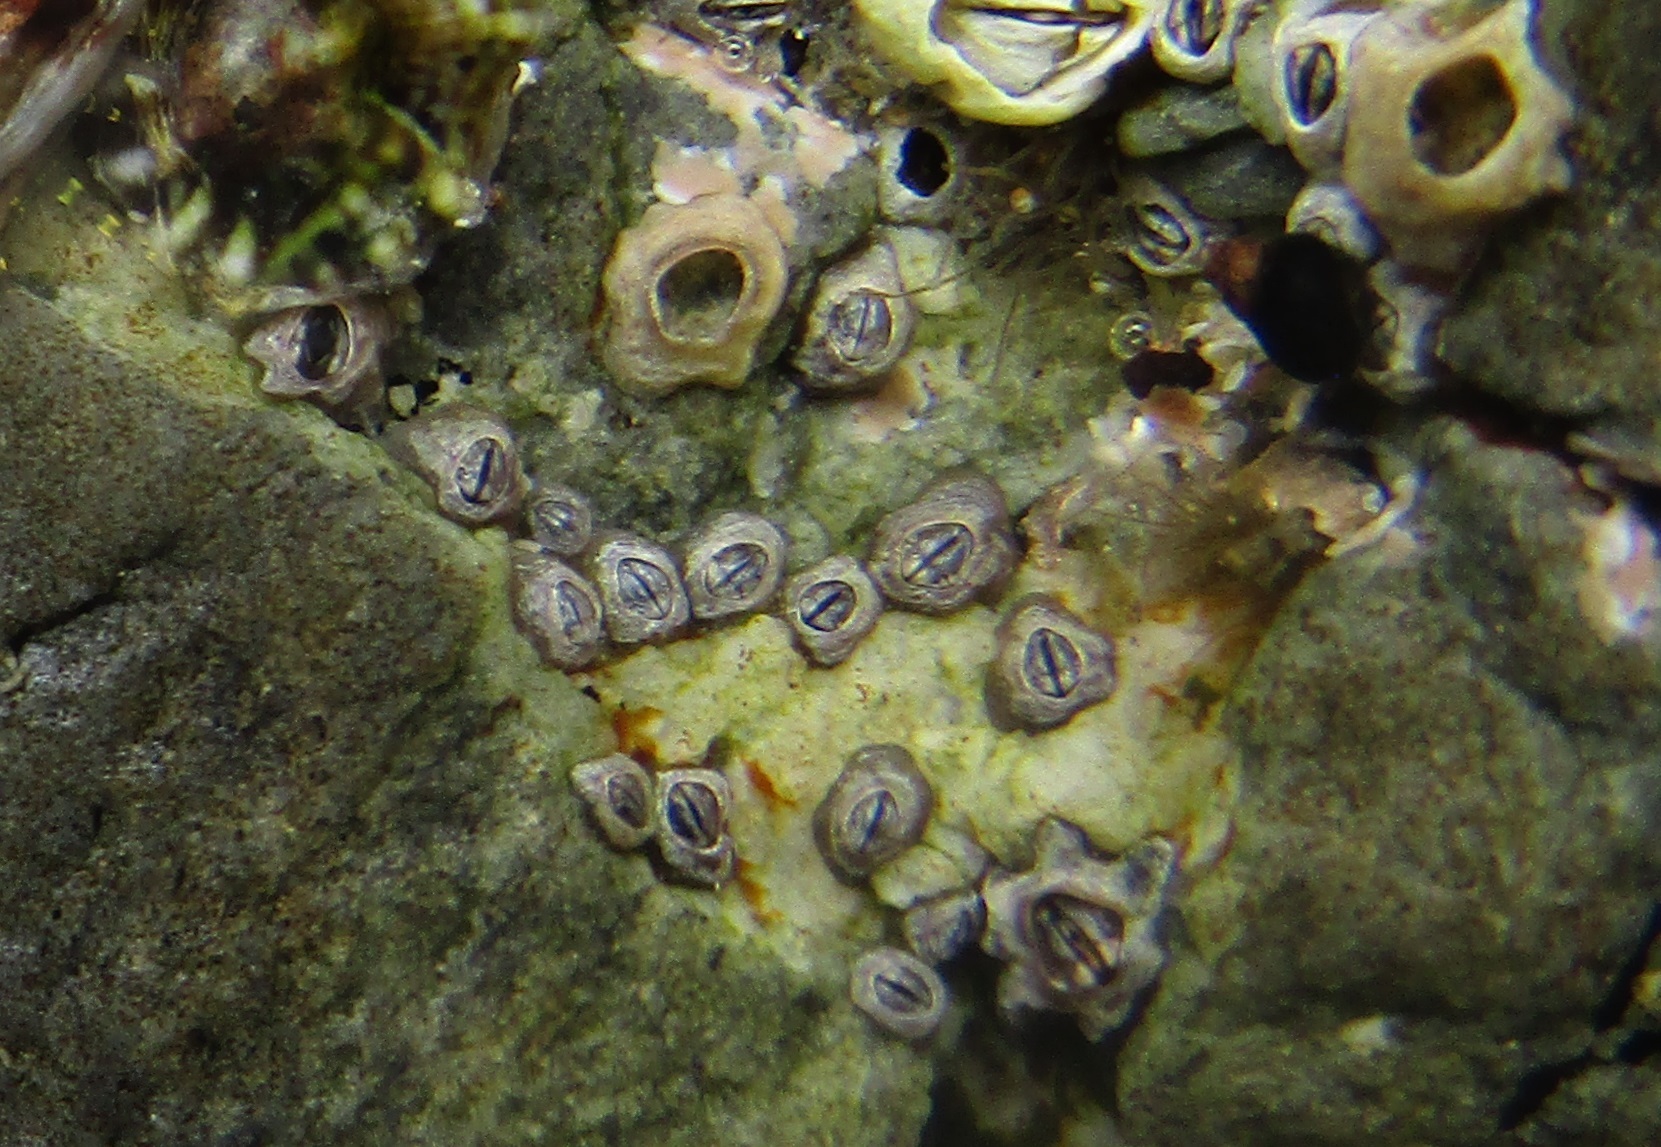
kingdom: Animalia
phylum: Arthropoda
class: Maxillopoda
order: Sessilia
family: Chthamalidae
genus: Chamaesipho
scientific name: Chamaesipho columna
